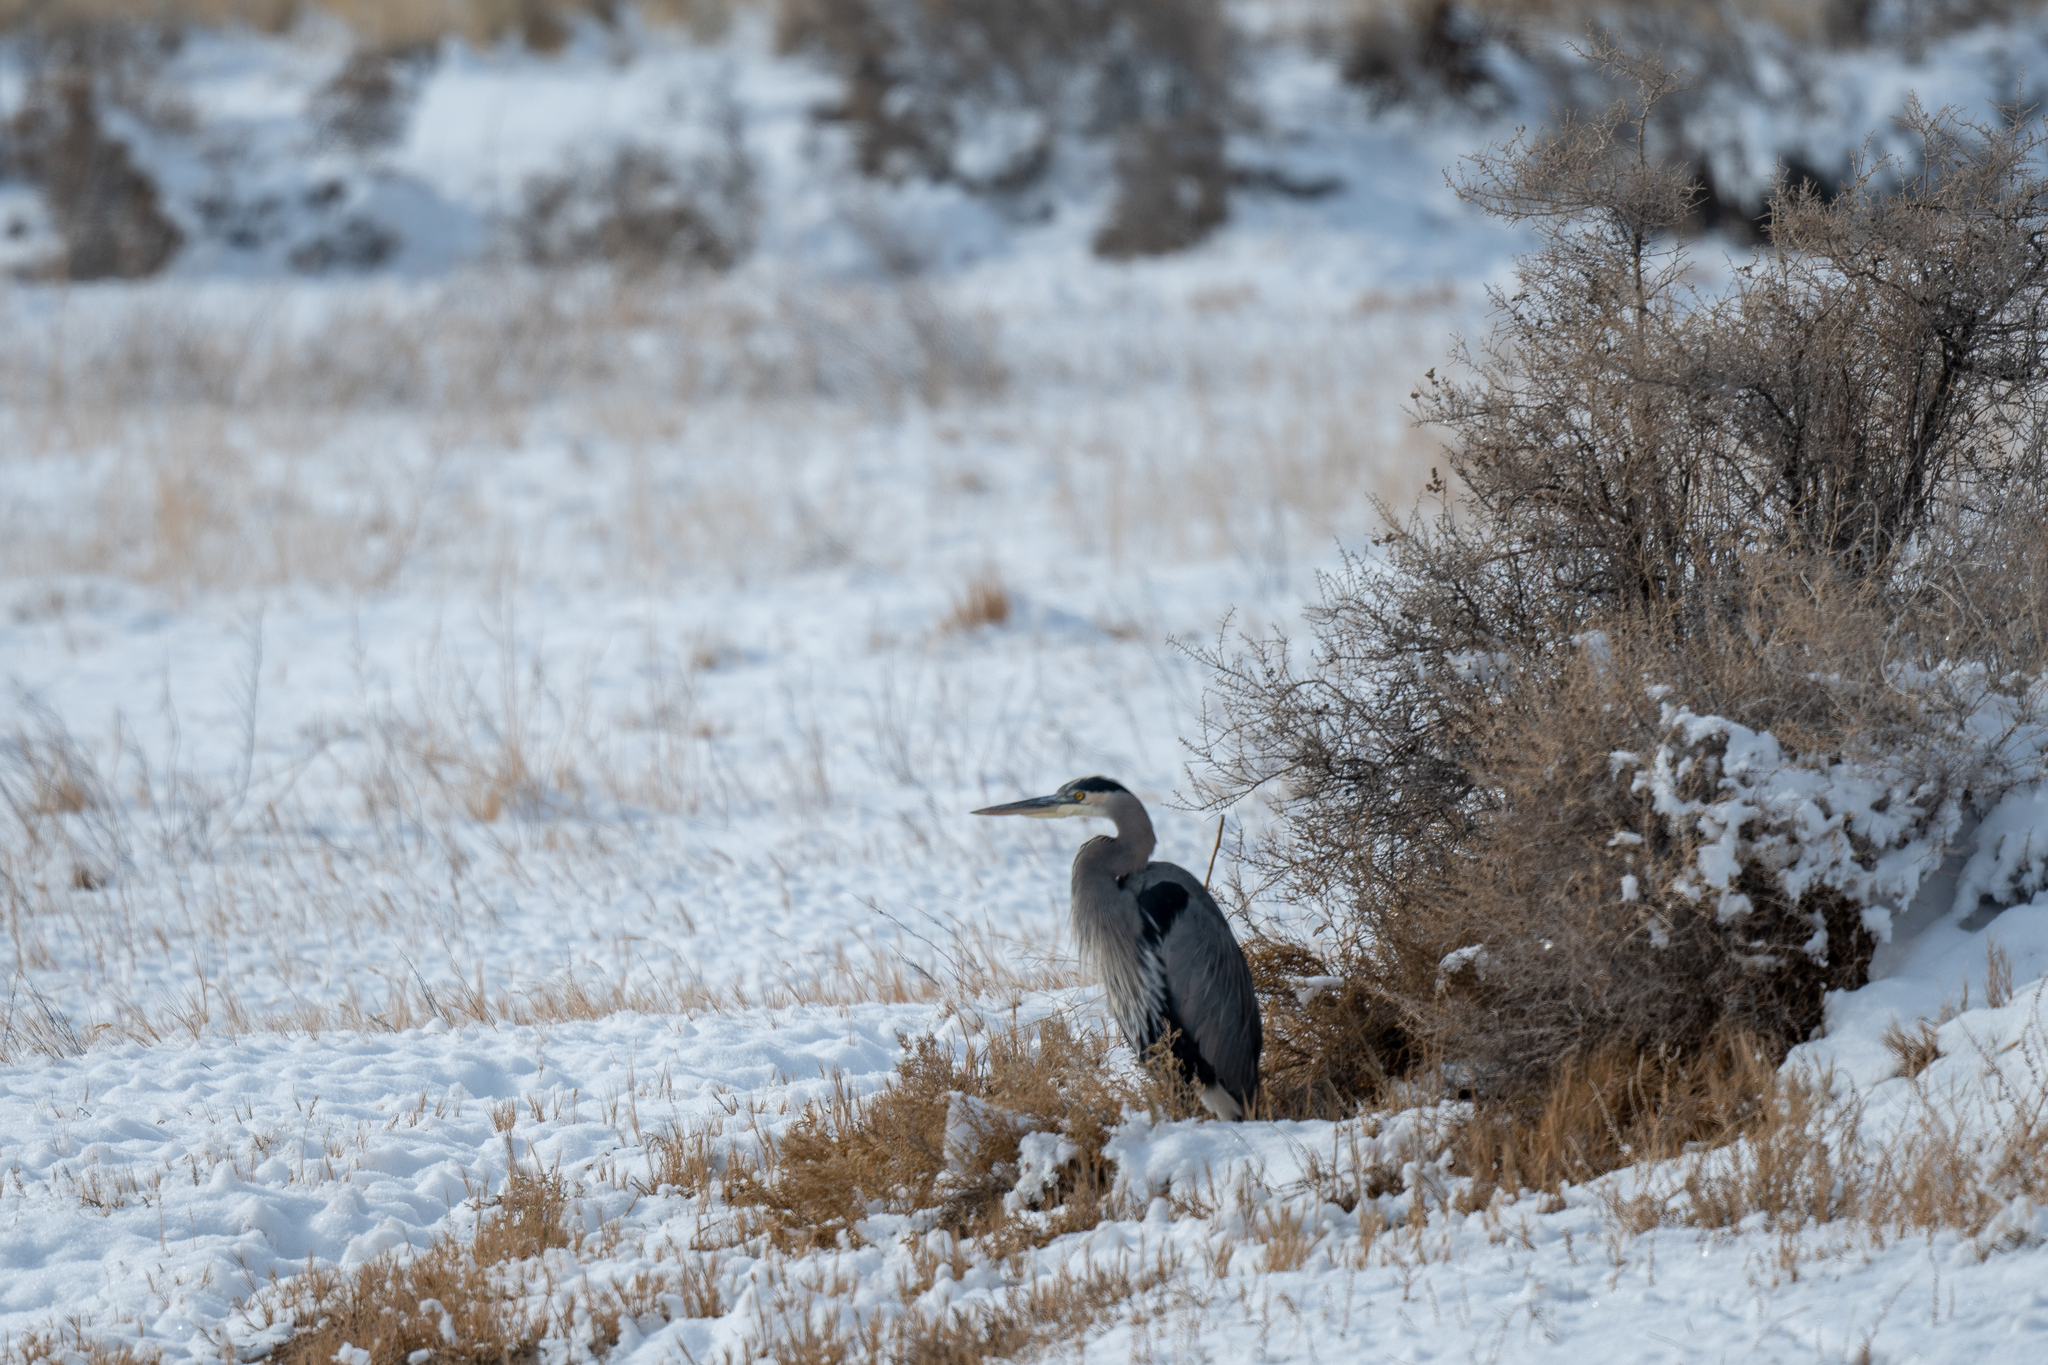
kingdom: Animalia
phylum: Chordata
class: Aves
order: Pelecaniformes
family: Ardeidae
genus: Ardea
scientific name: Ardea herodias
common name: Great blue heron
